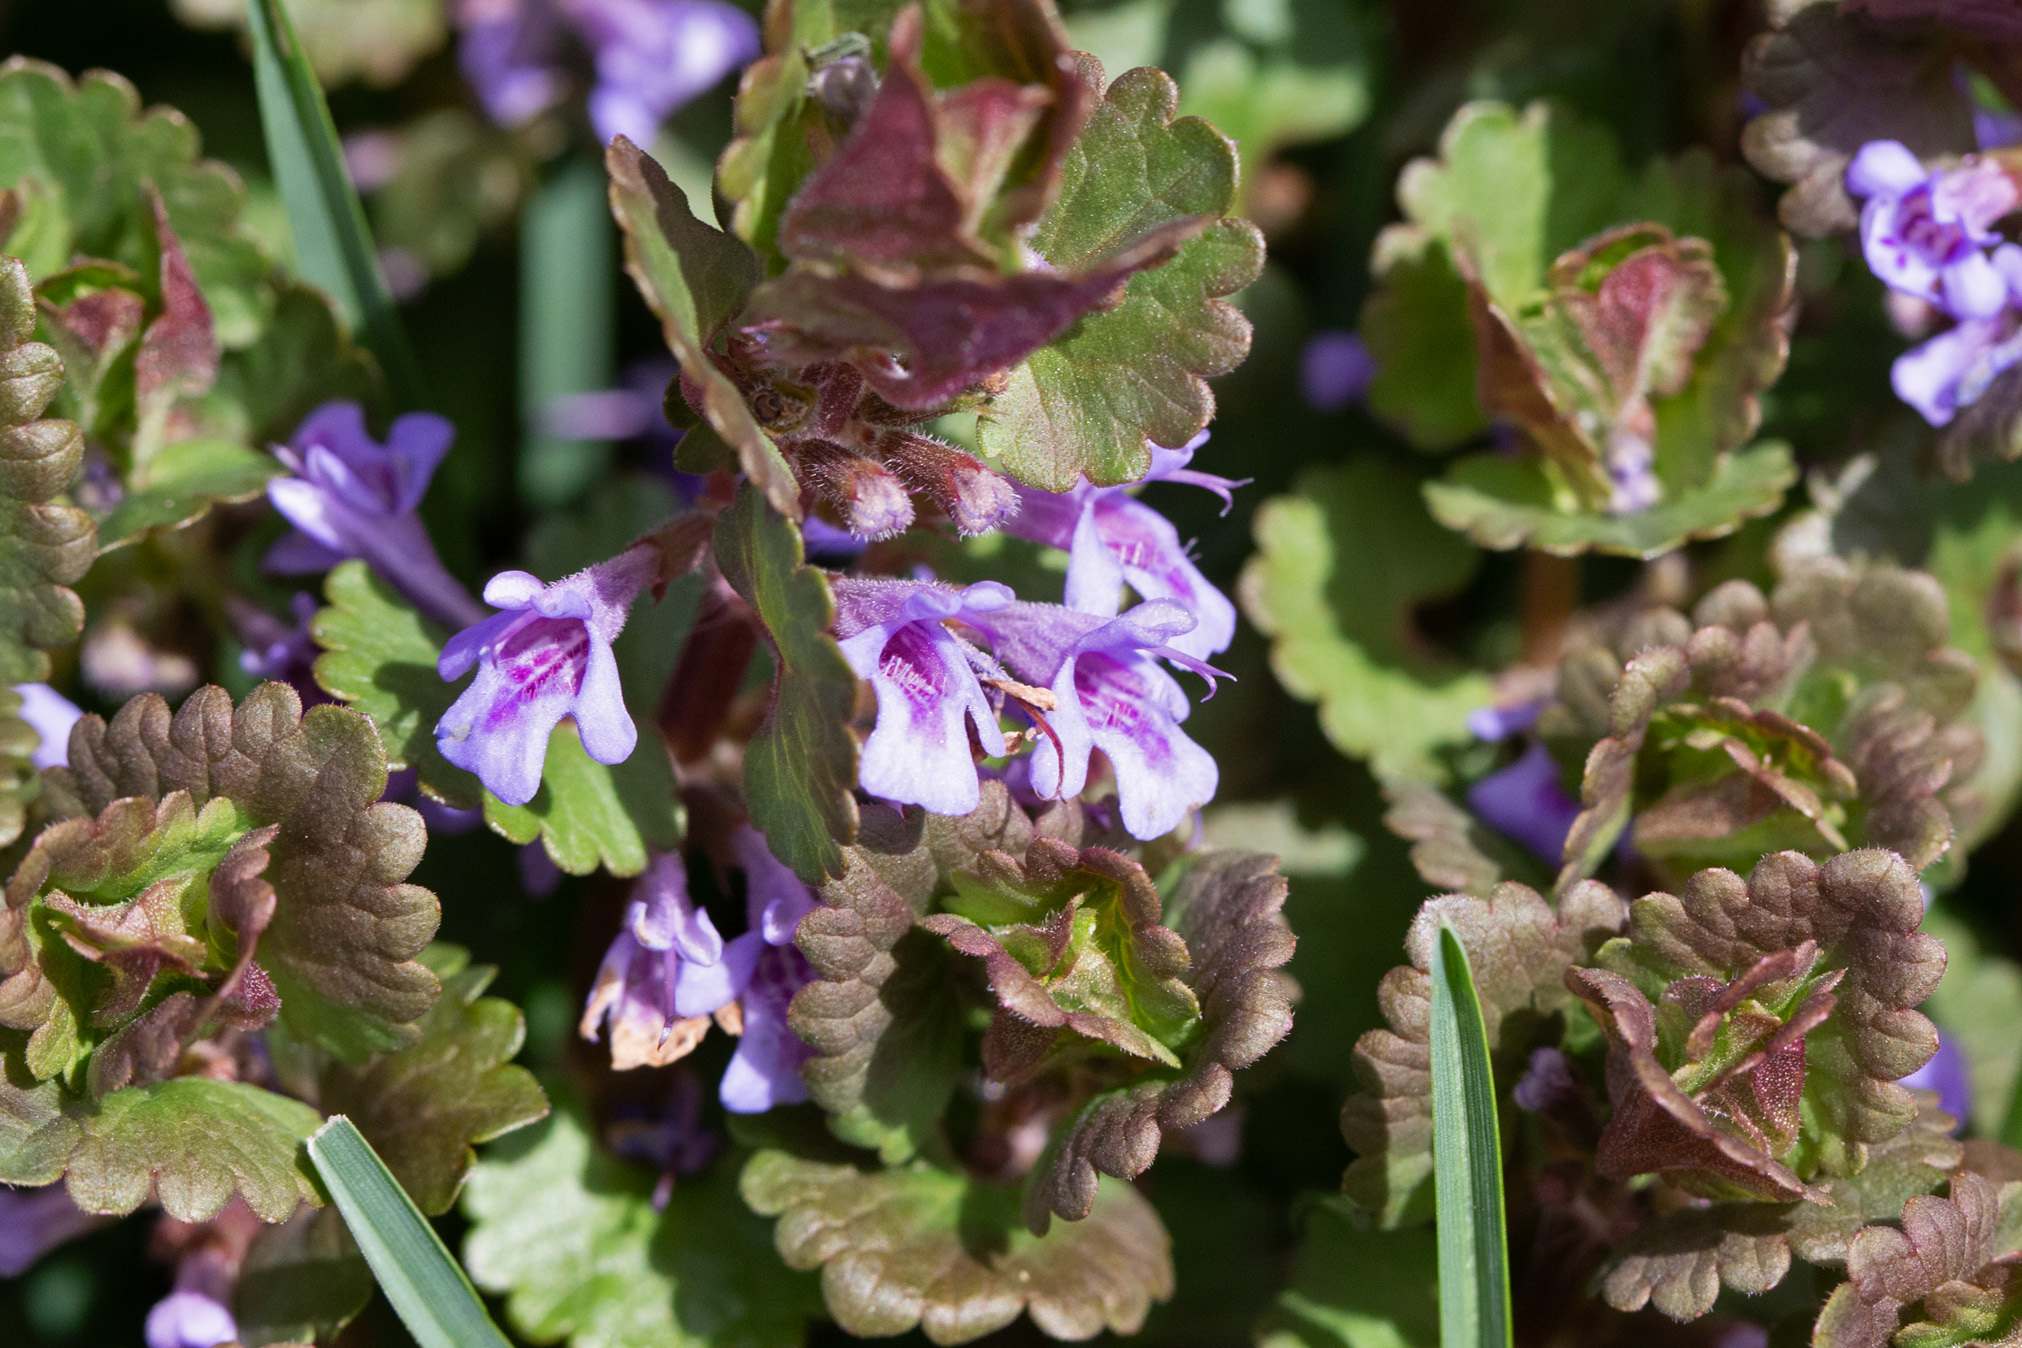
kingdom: Plantae
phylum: Tracheophyta
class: Magnoliopsida
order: Lamiales
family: Lamiaceae
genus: Glechoma
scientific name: Glechoma hederacea
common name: Ground ivy
